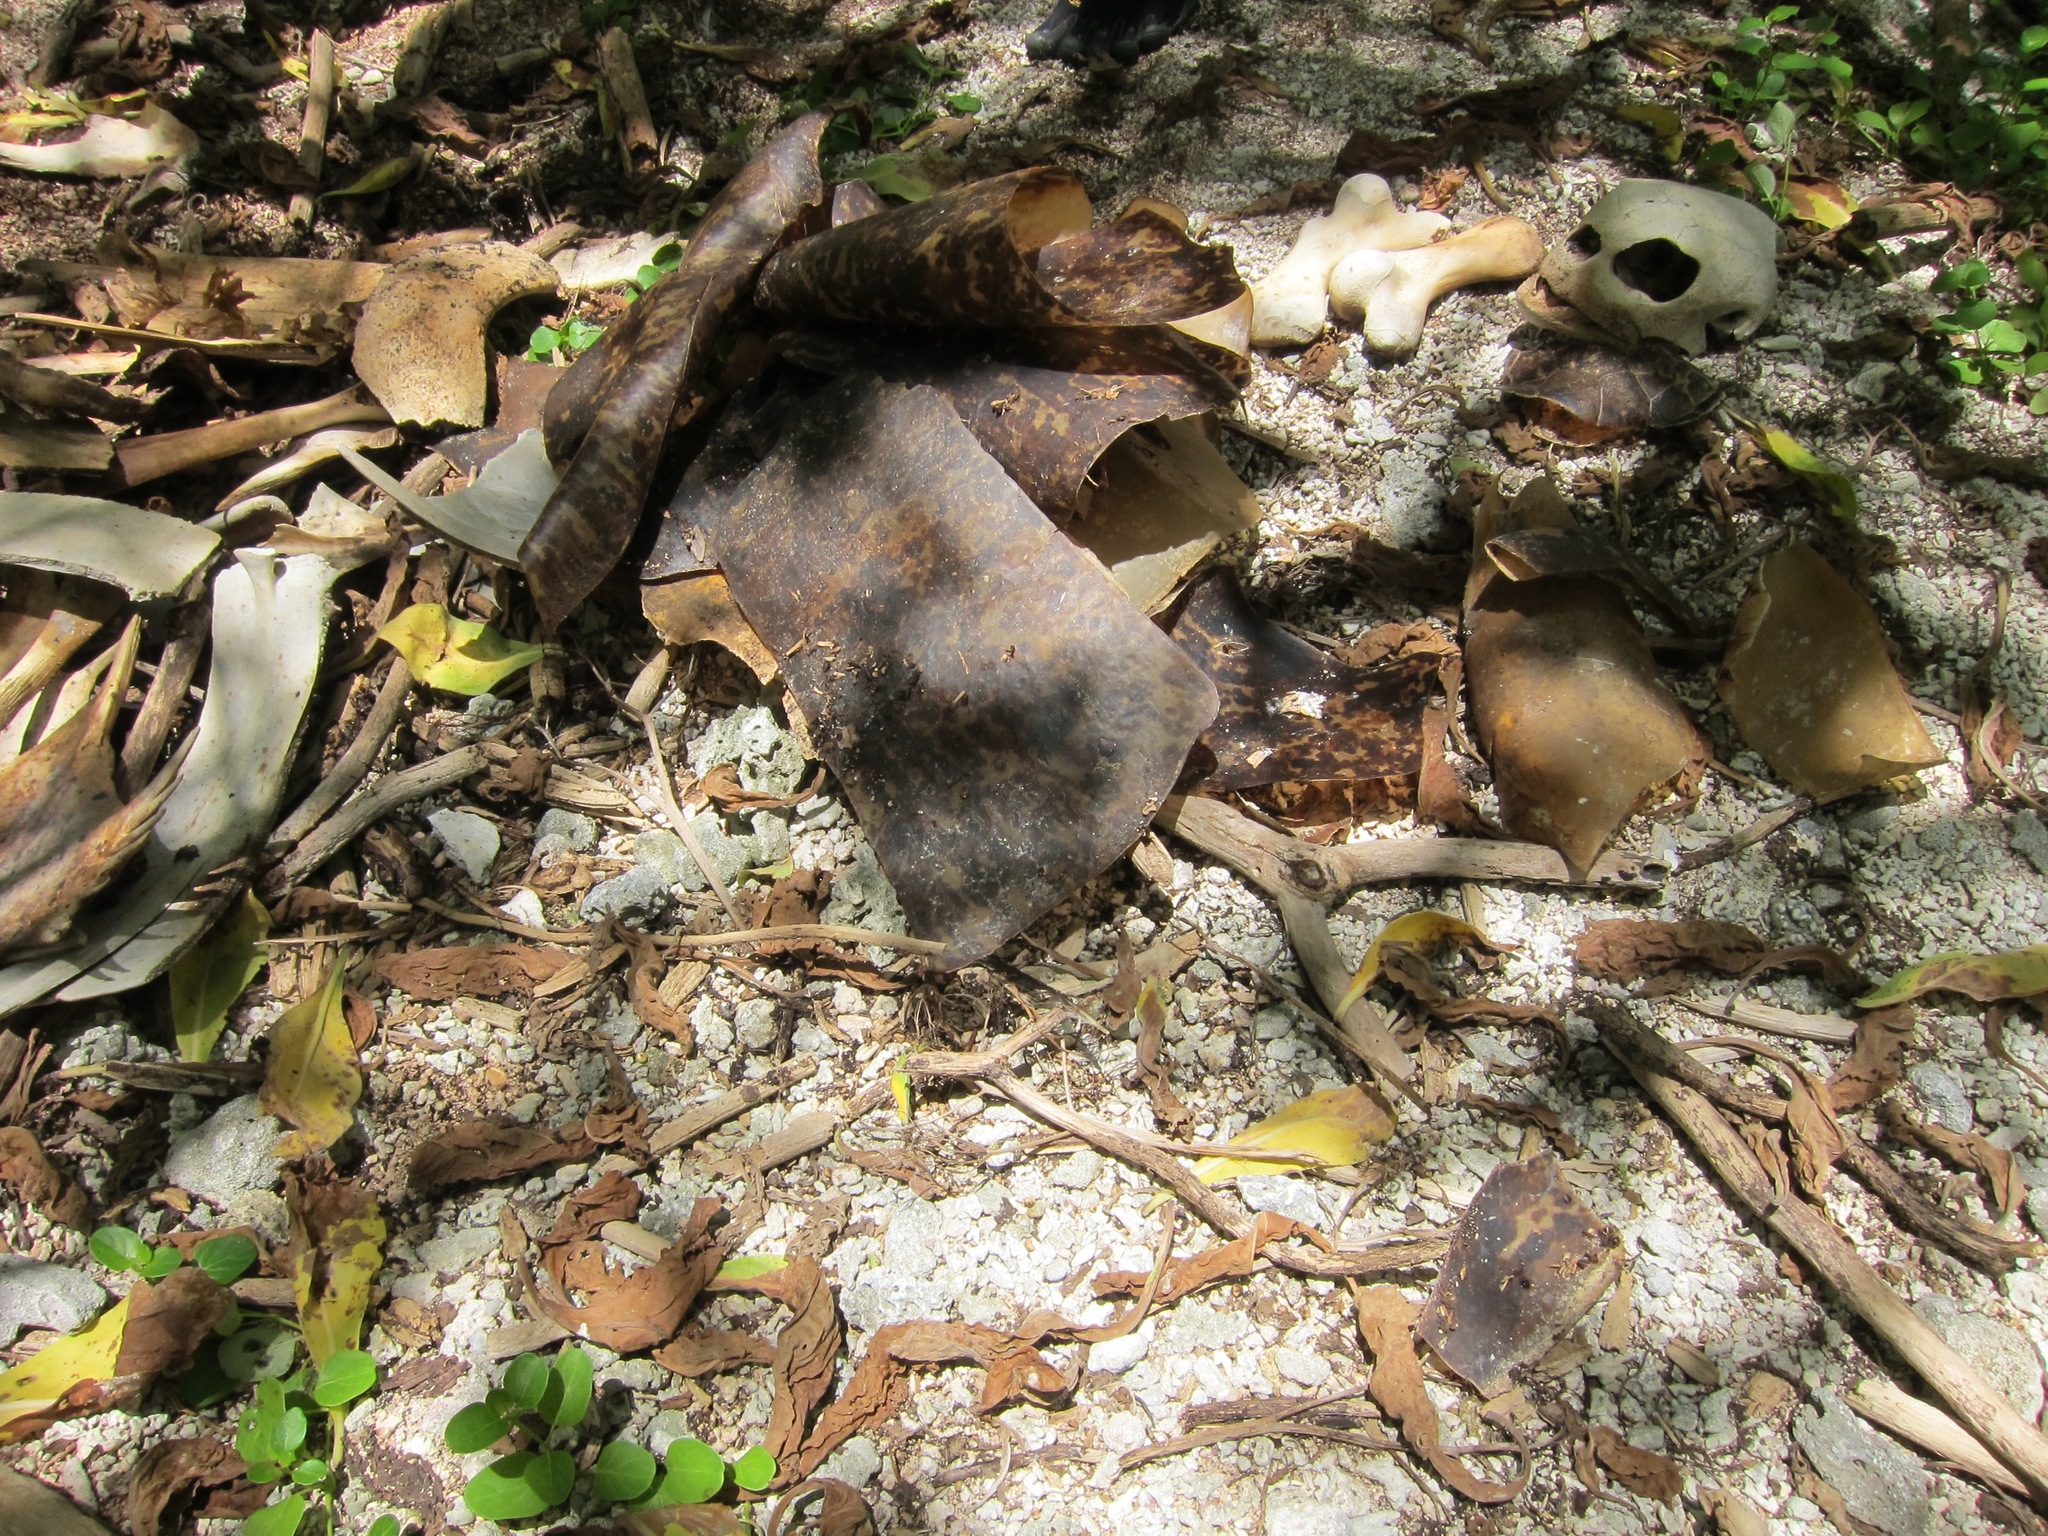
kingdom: Animalia
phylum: Chordata
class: Testudines
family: Cheloniidae
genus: Chelonia
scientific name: Chelonia mydas
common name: Green turtle
